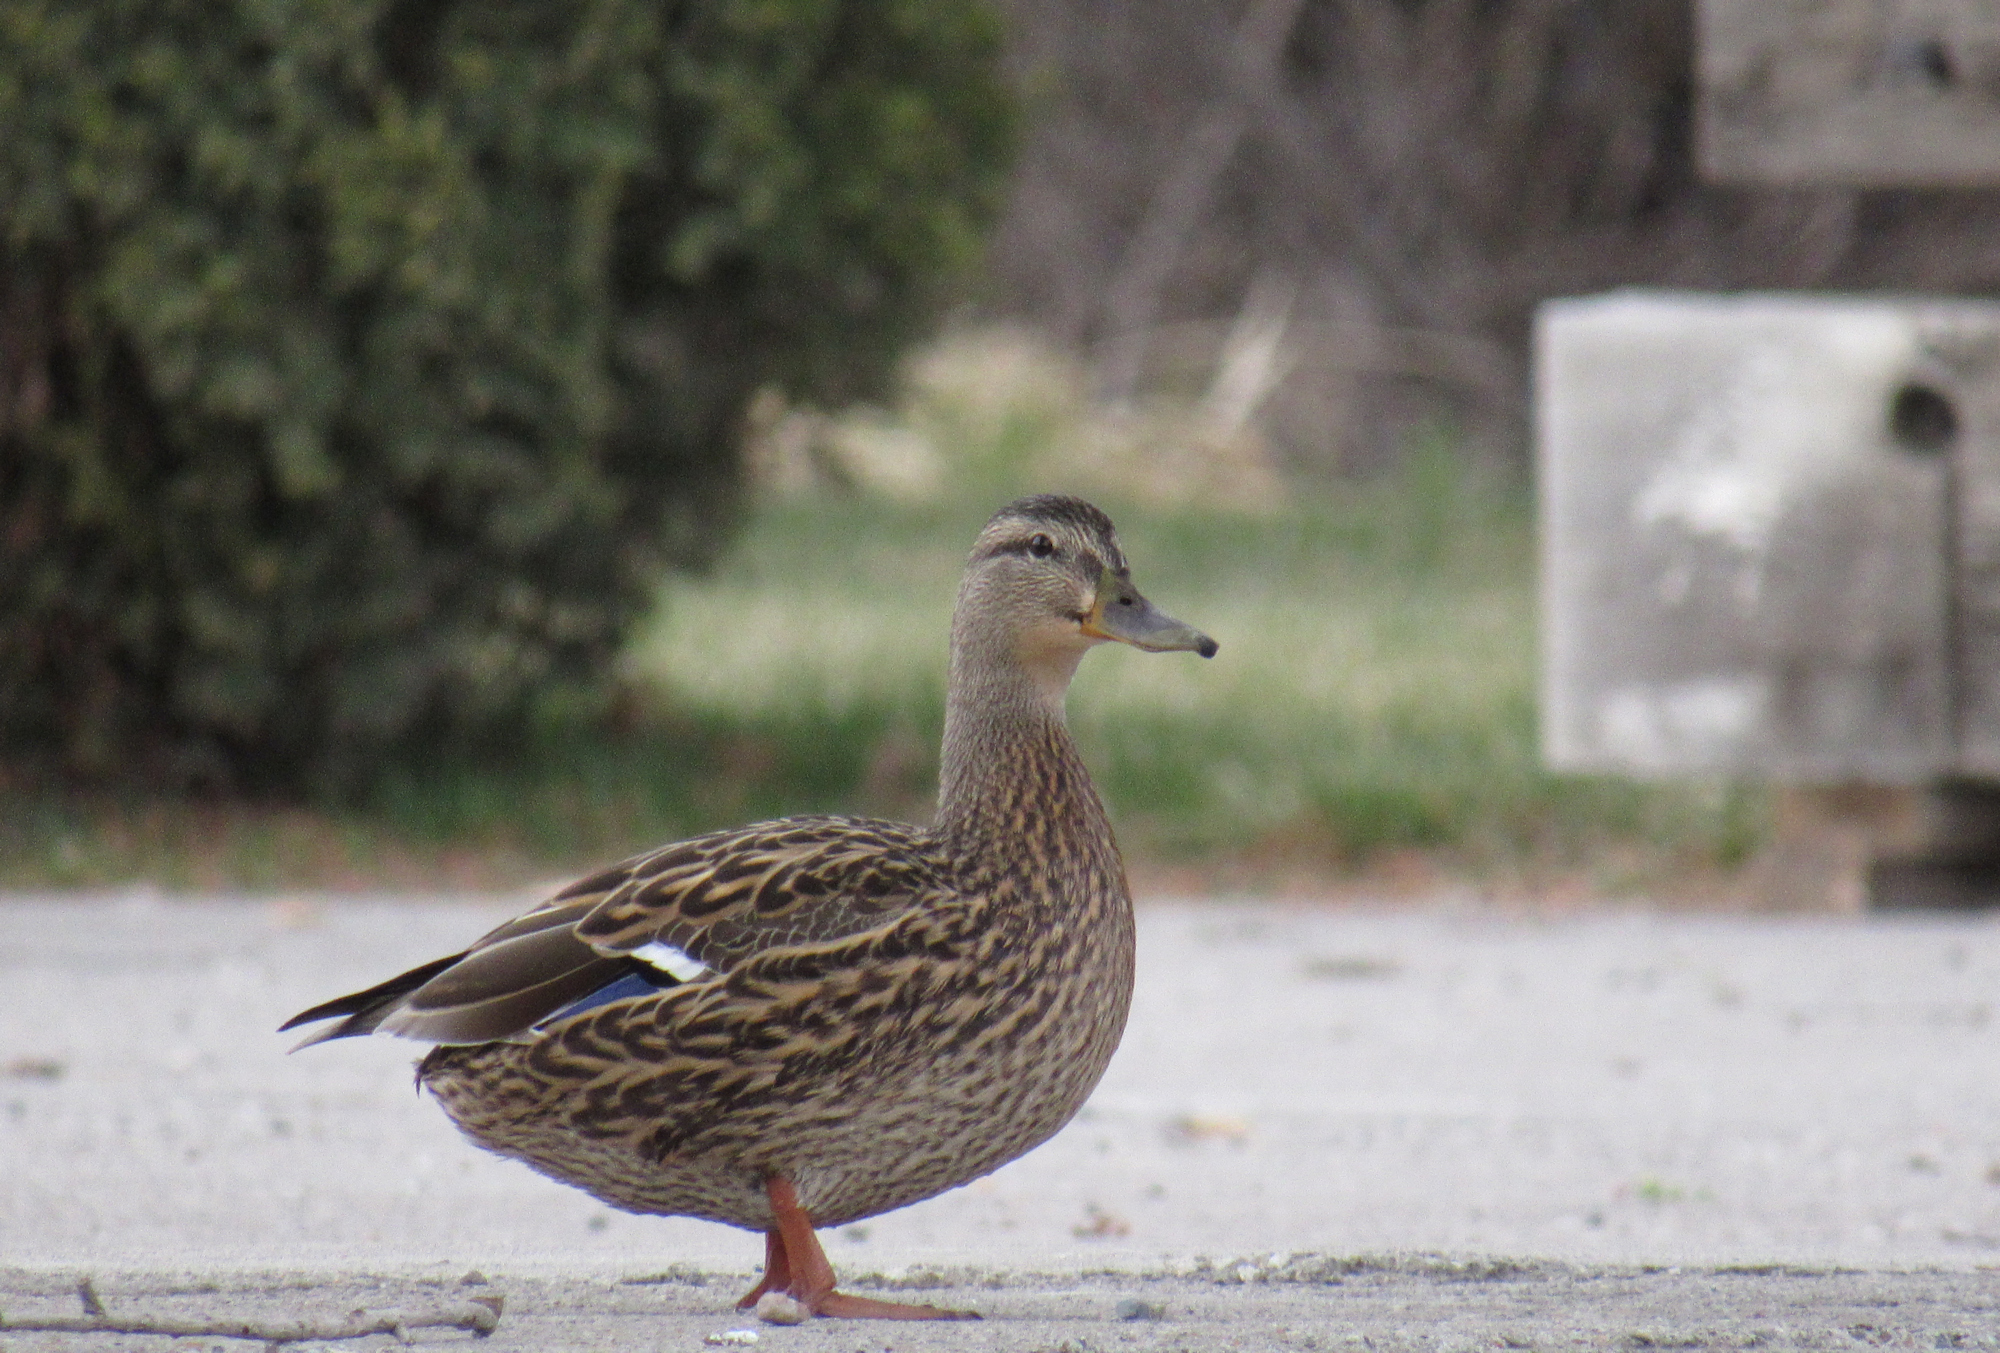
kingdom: Animalia
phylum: Chordata
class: Aves
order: Anseriformes
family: Anatidae
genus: Anas
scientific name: Anas platyrhynchos
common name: Mallard
